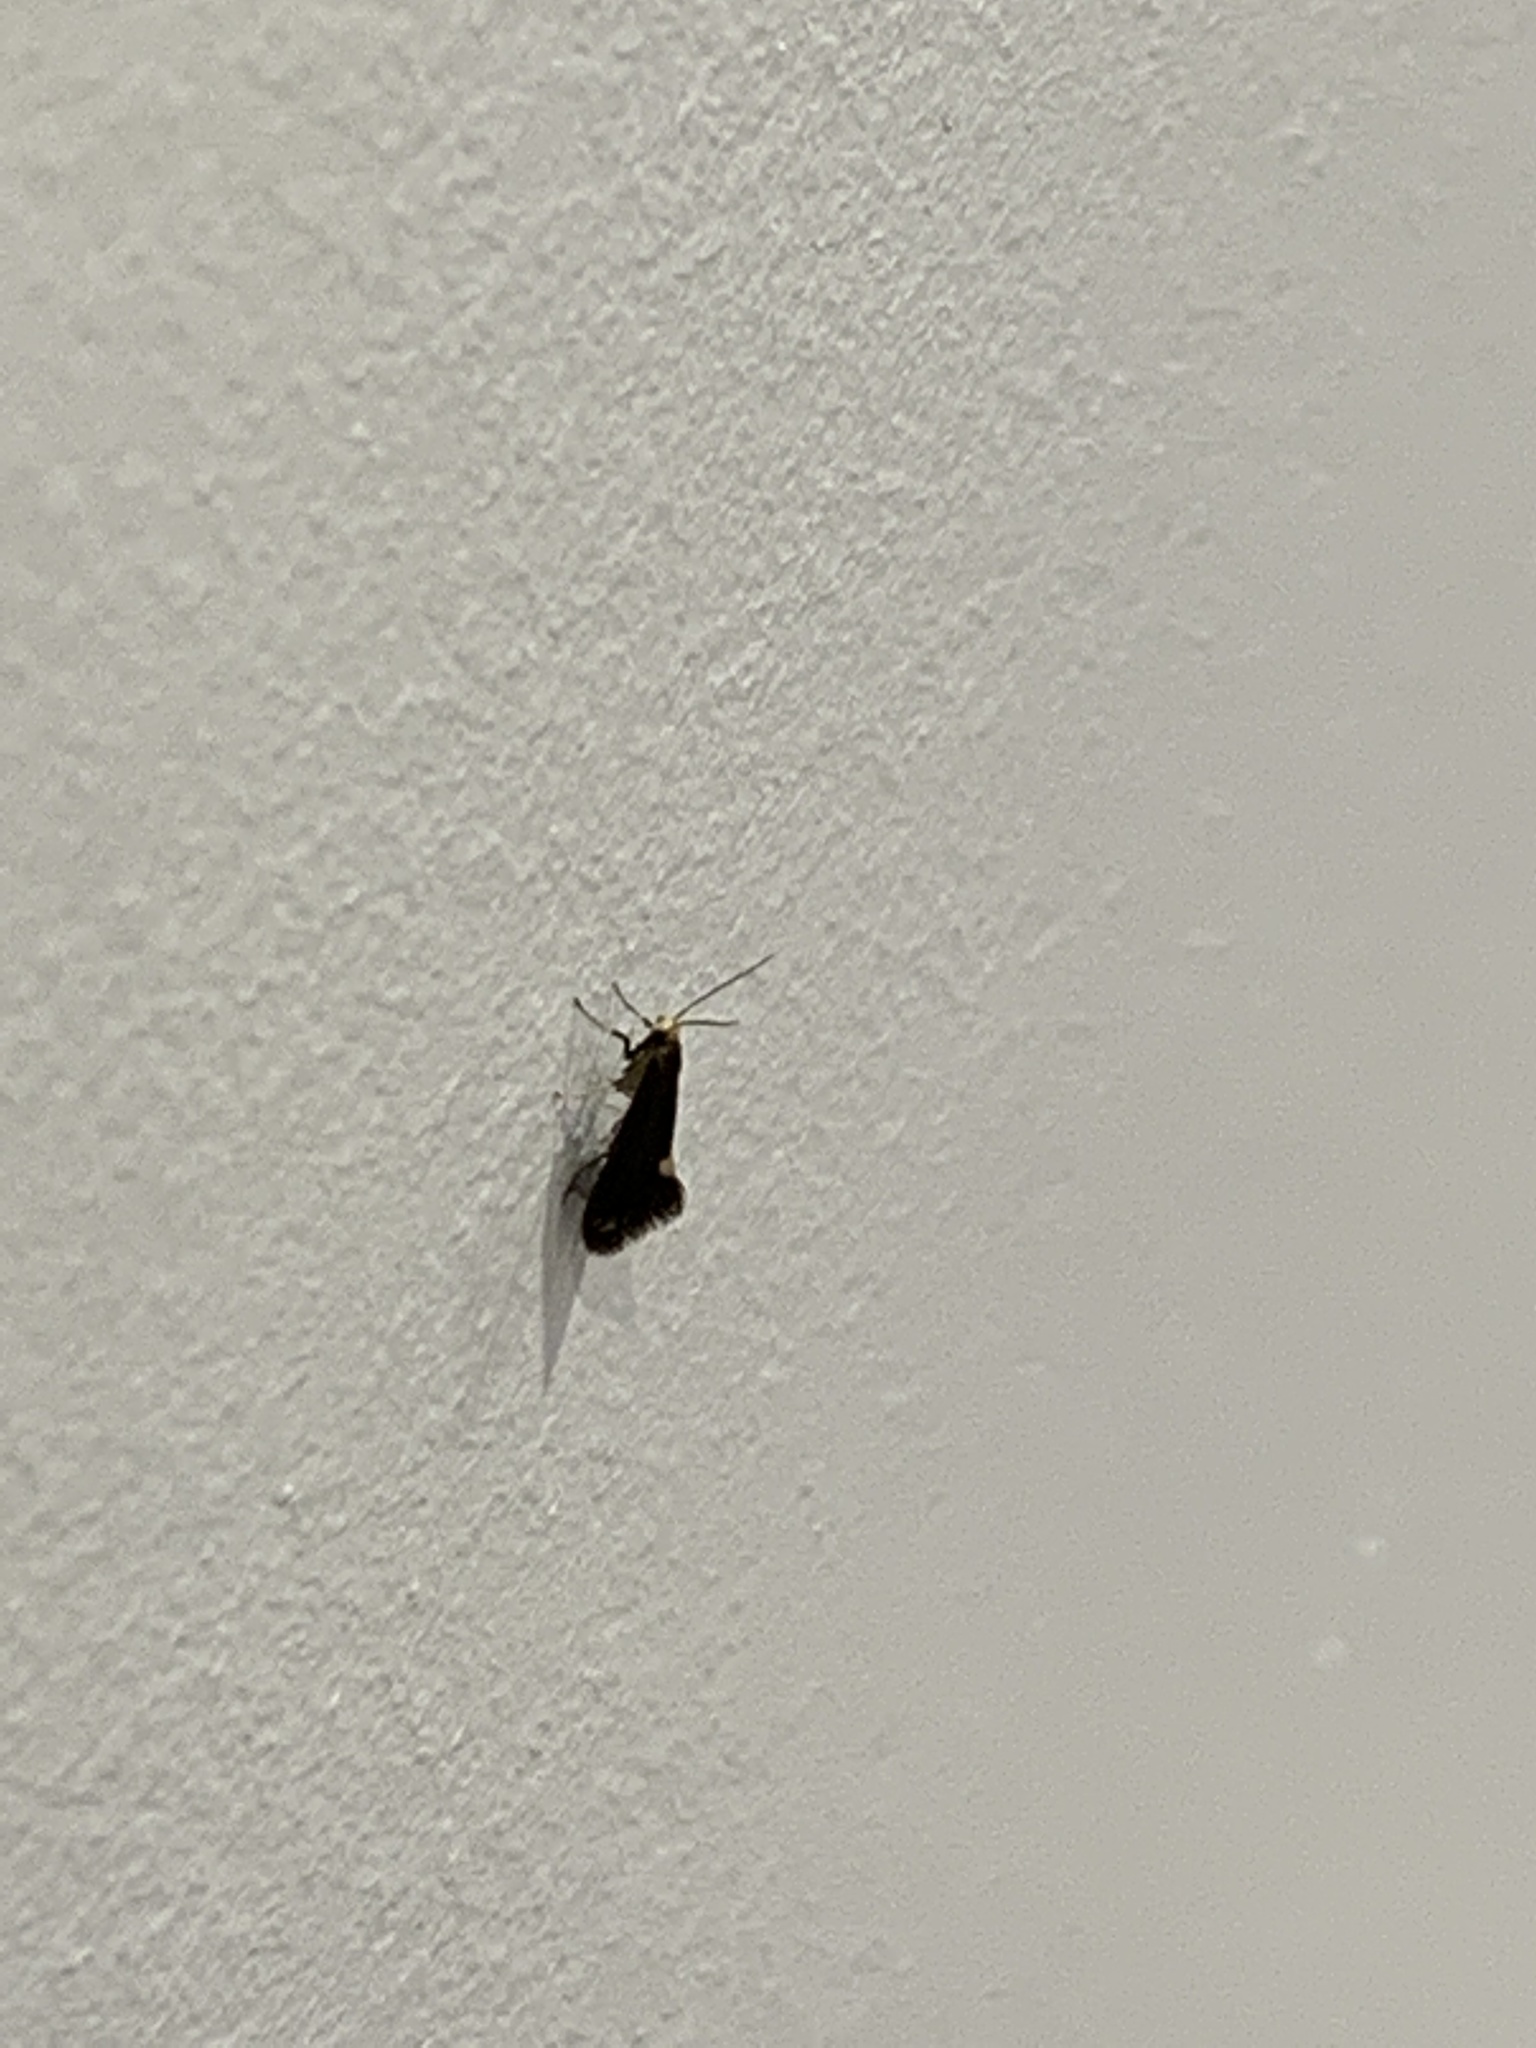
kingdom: Animalia
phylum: Arthropoda
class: Insecta
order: Lepidoptera
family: Tineidae
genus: Psychoides
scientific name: Psychoides filicivora
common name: Fern smut
